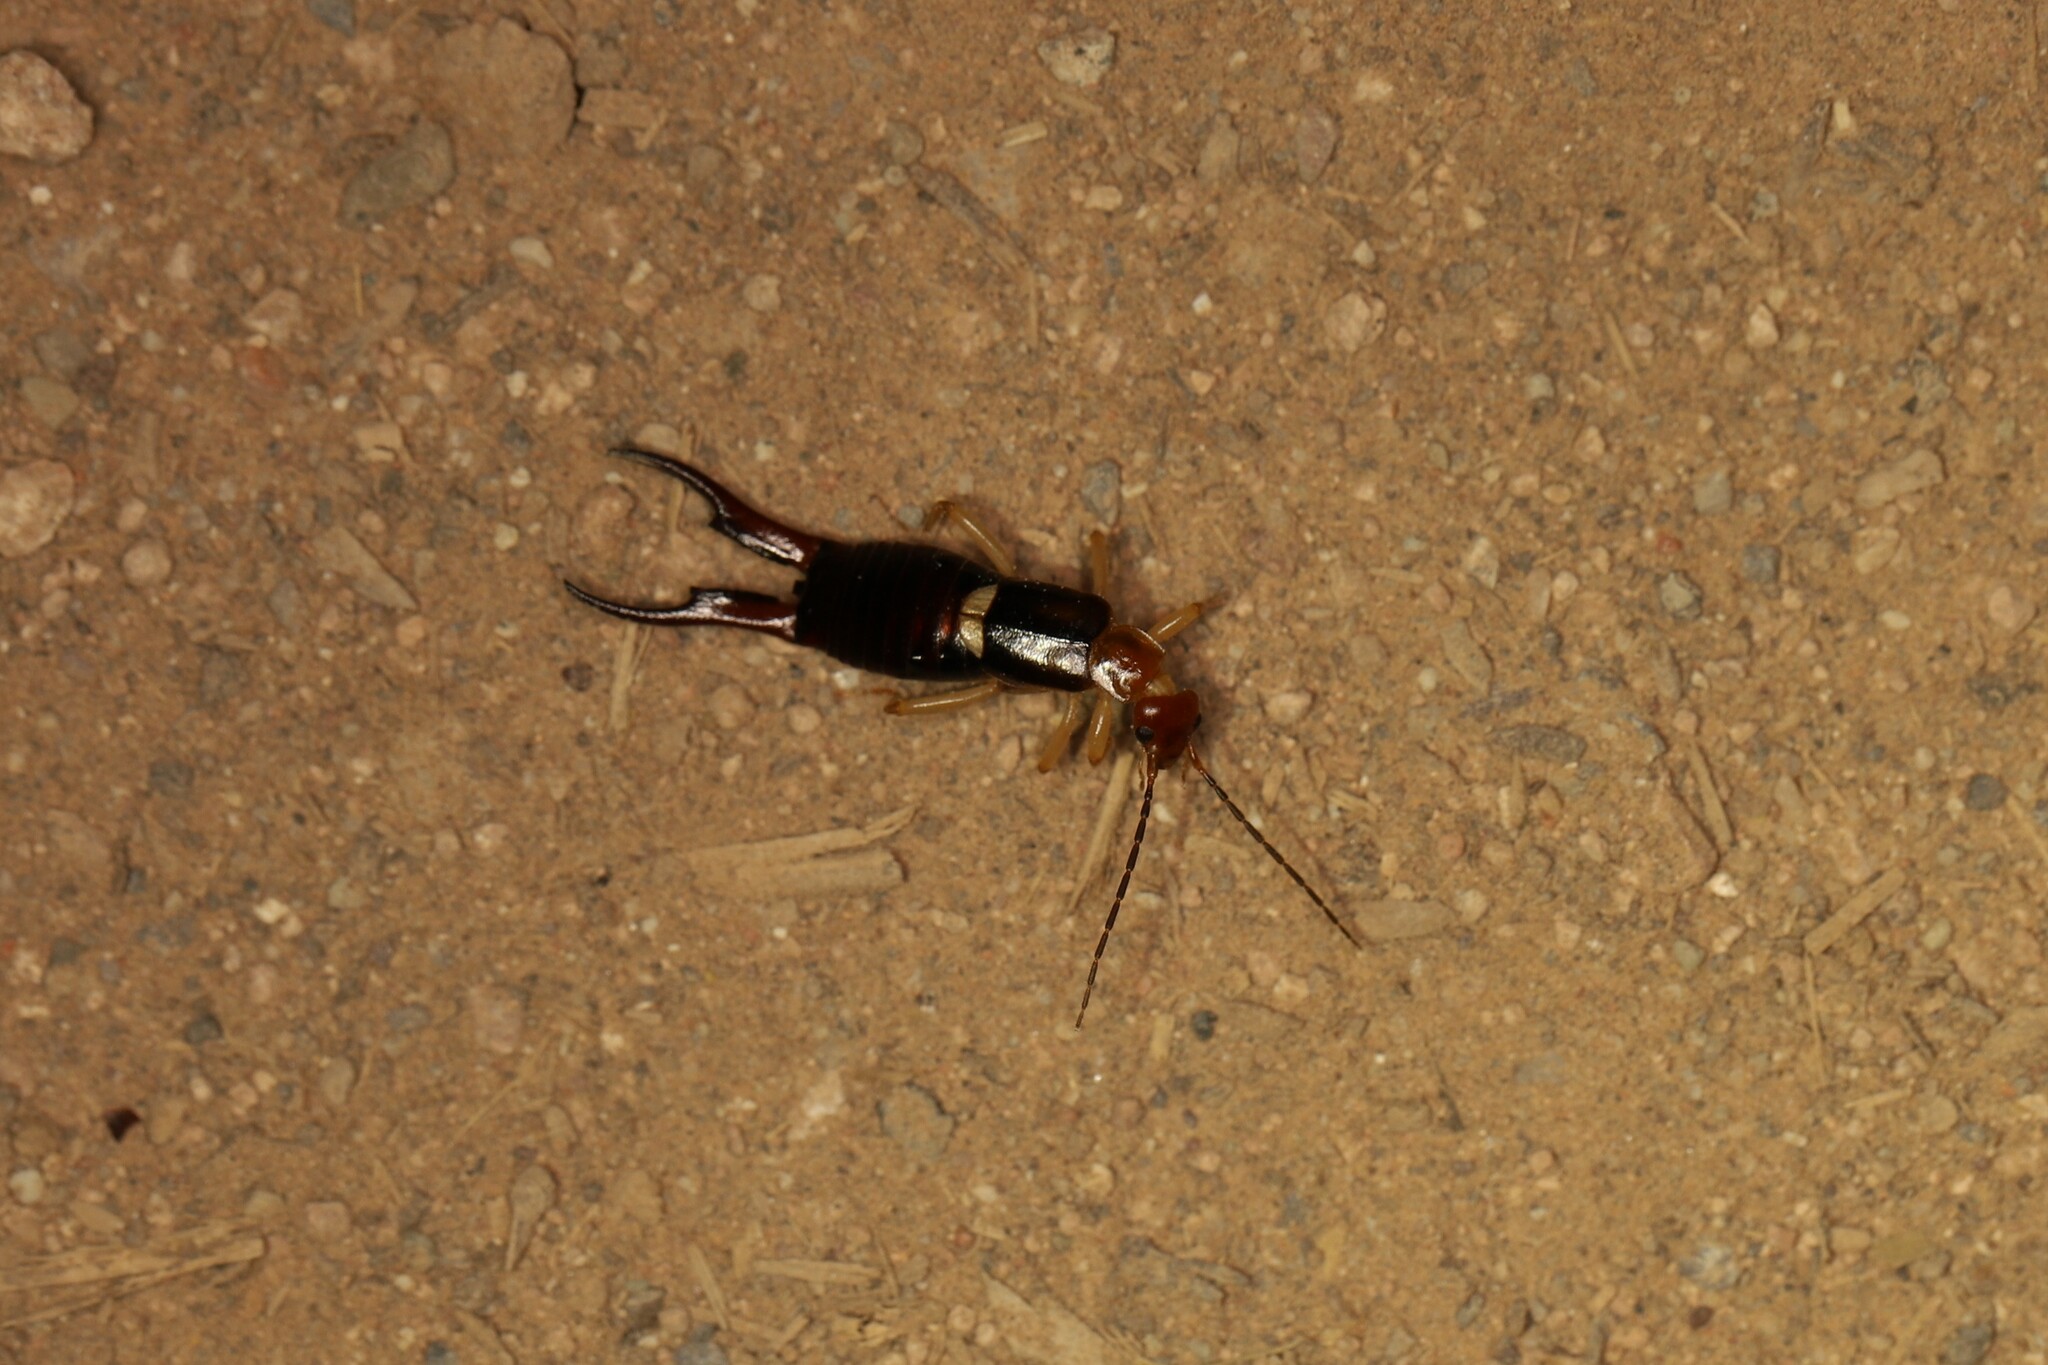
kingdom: Animalia
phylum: Arthropoda
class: Insecta
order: Dermaptera
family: Forficulidae
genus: Forficula
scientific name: Forficula riffensis
